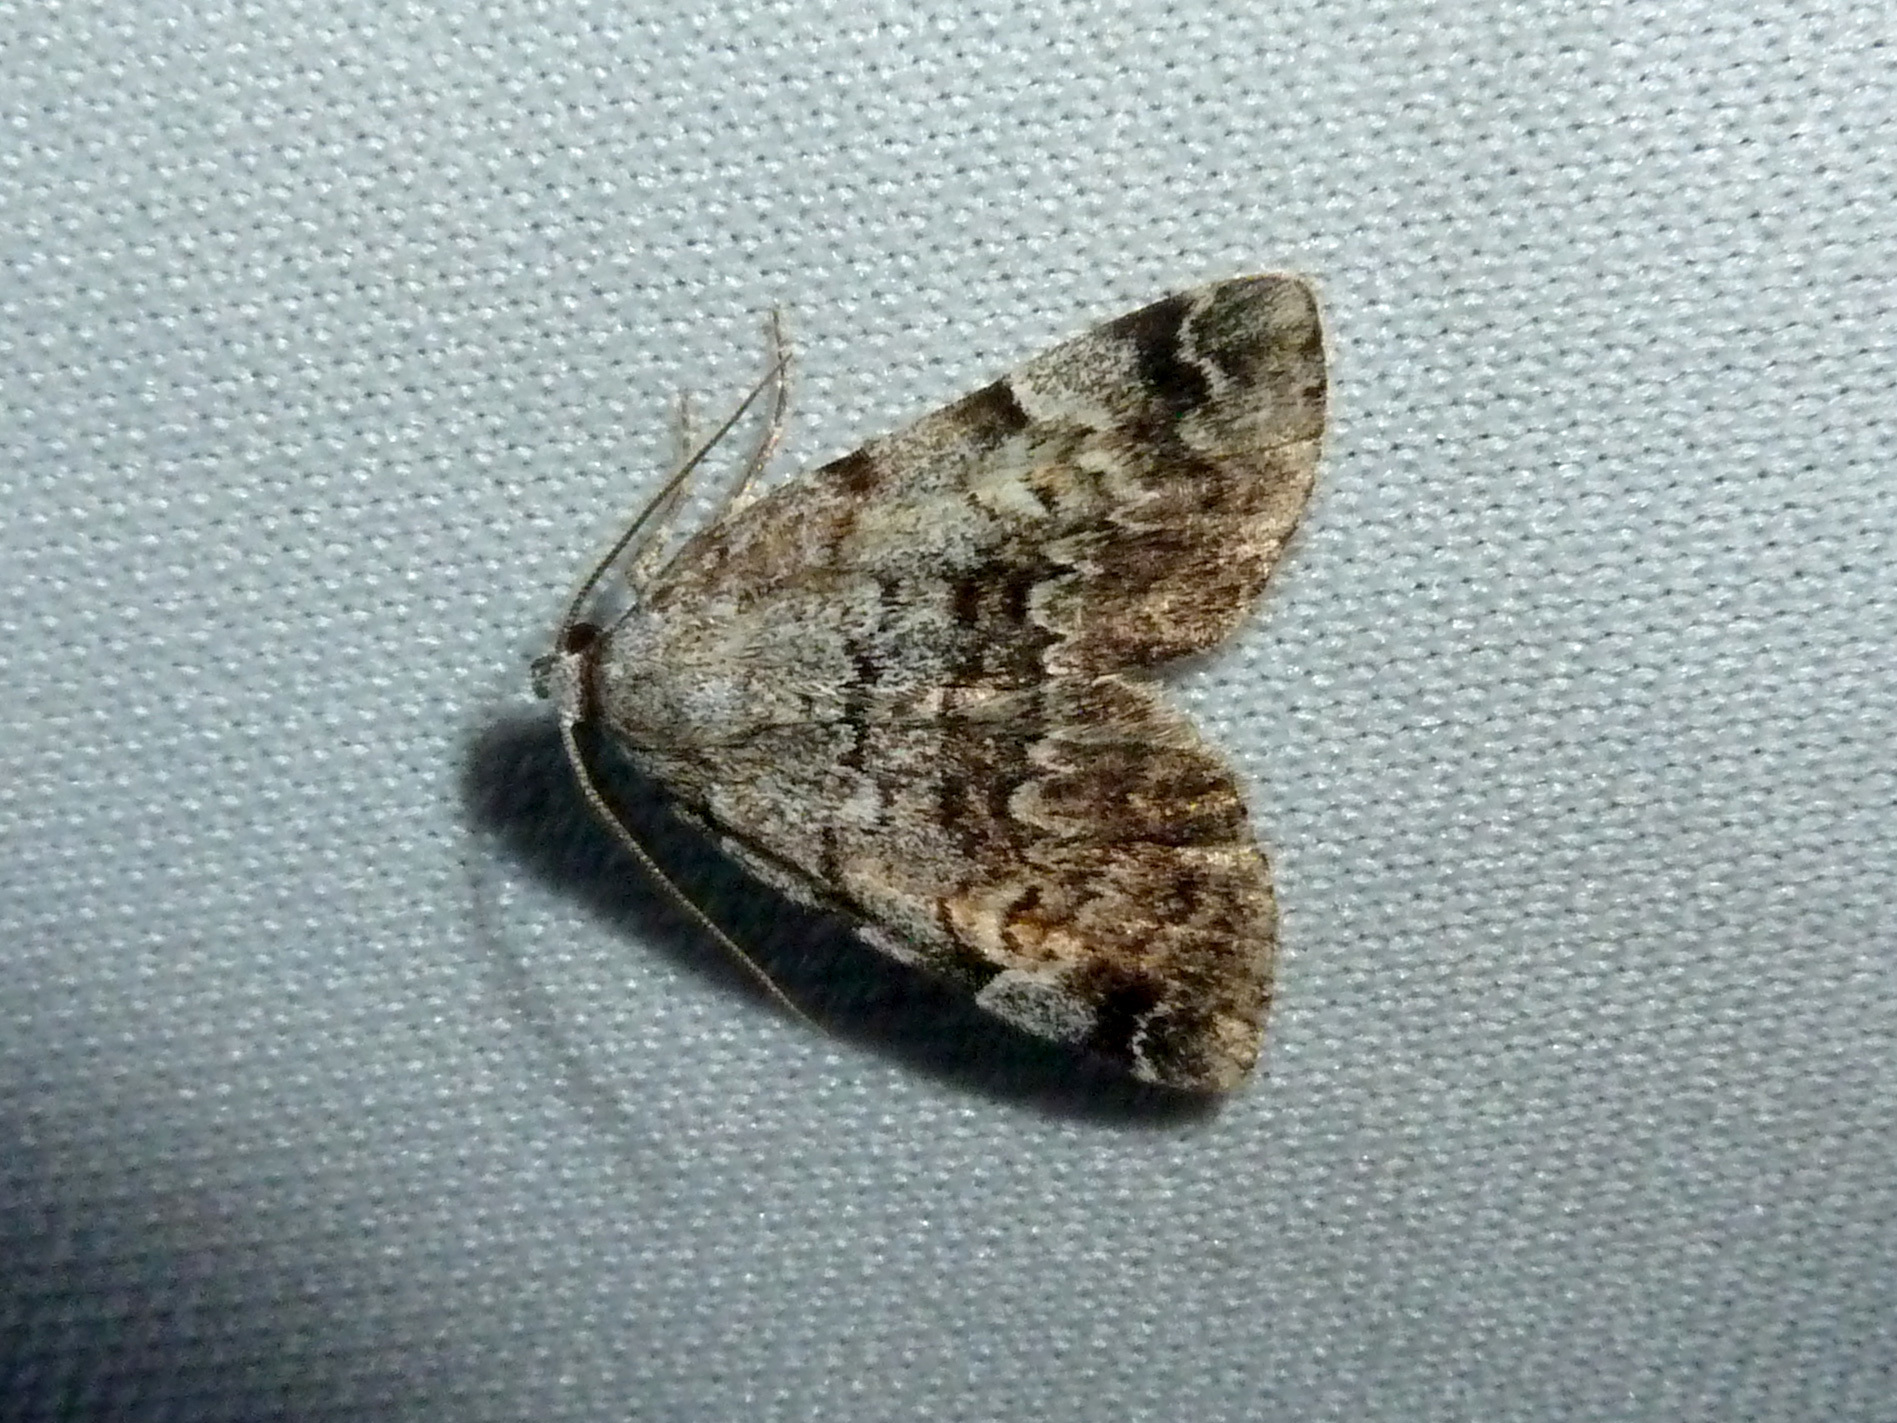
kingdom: Animalia
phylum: Arthropoda
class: Insecta
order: Lepidoptera
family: Erebidae
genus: Idia
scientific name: Idia americalis
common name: American idia moth
